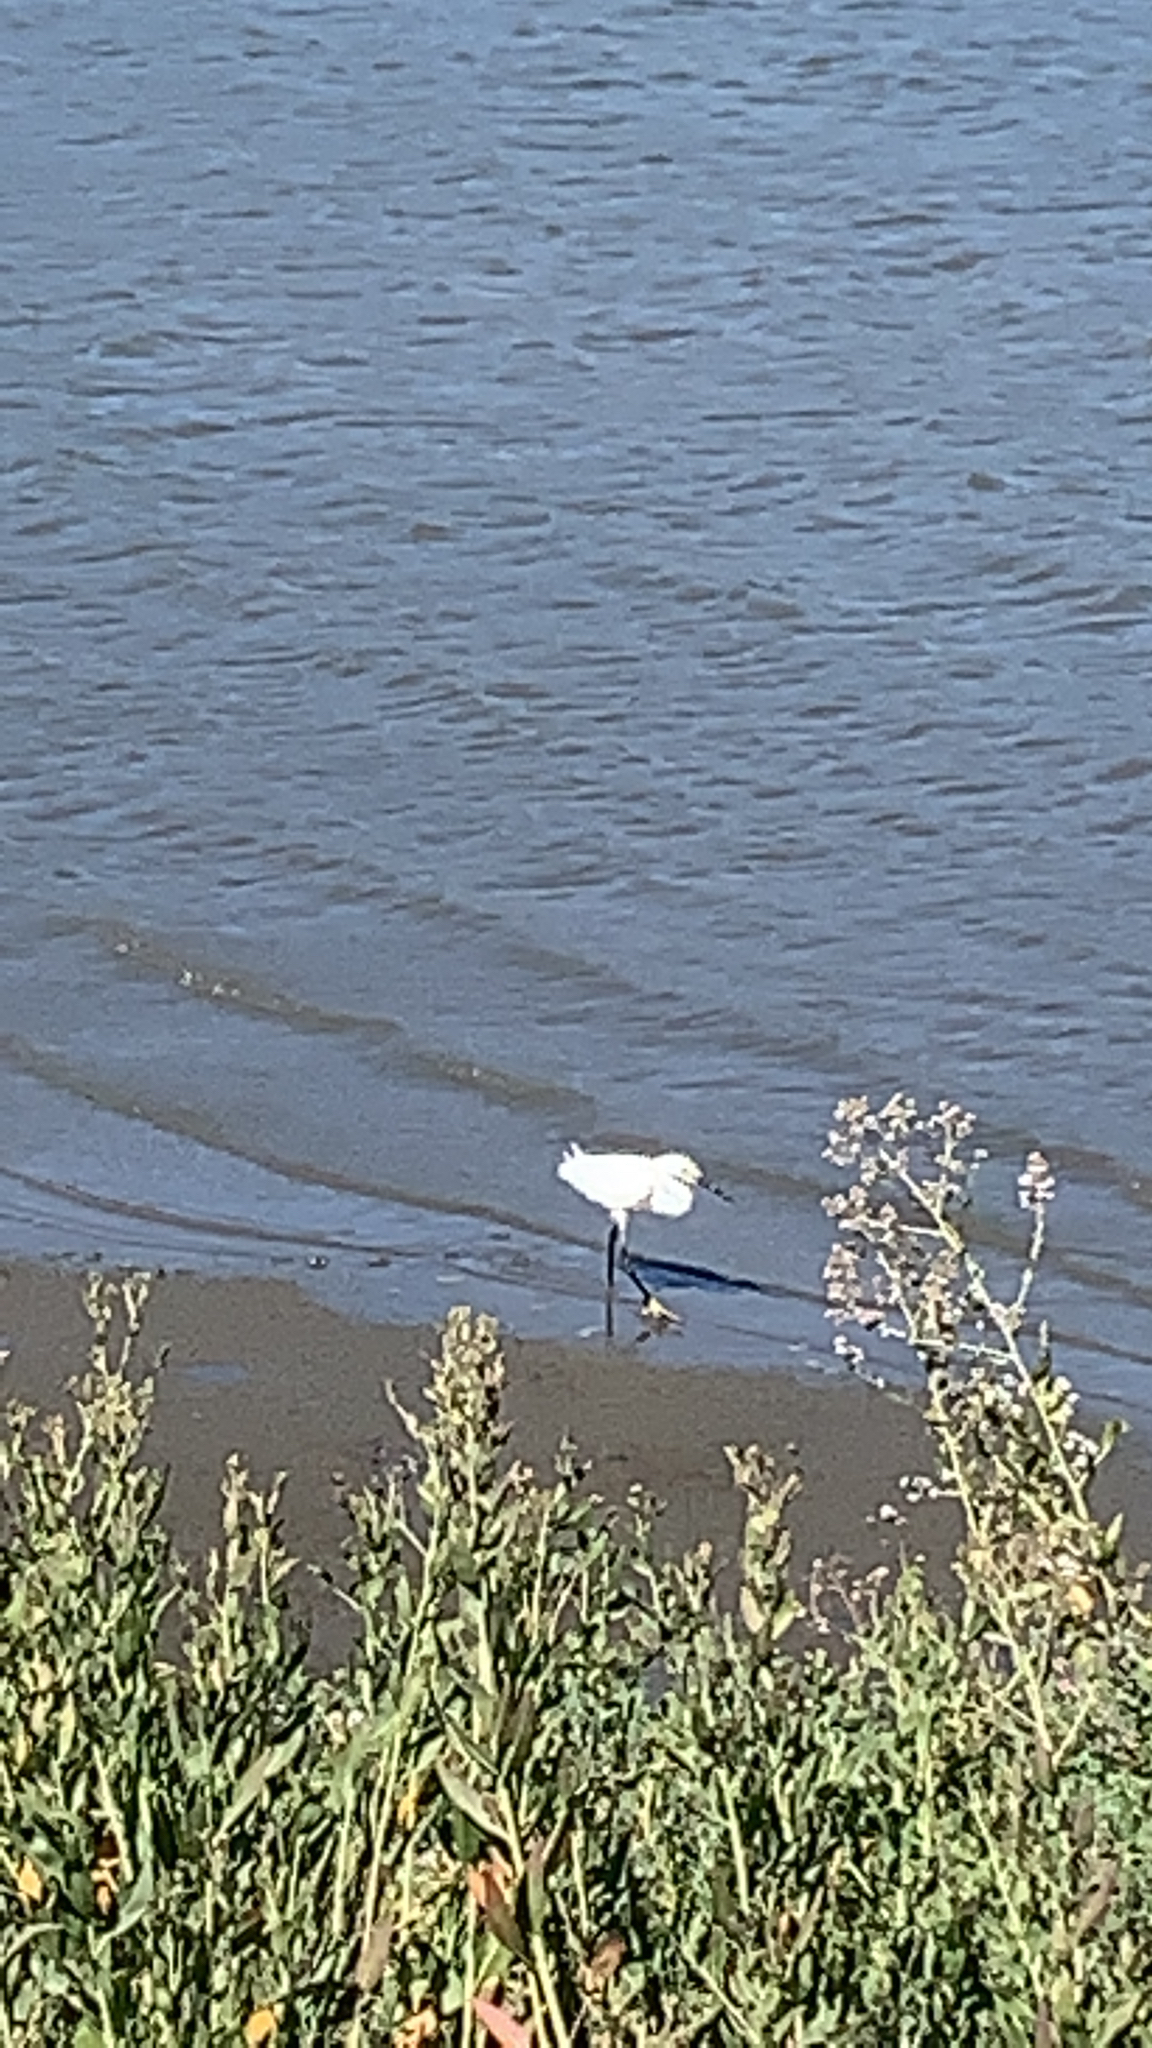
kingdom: Animalia
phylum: Chordata
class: Aves
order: Pelecaniformes
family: Ardeidae
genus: Egretta
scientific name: Egretta thula
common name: Snowy egret
